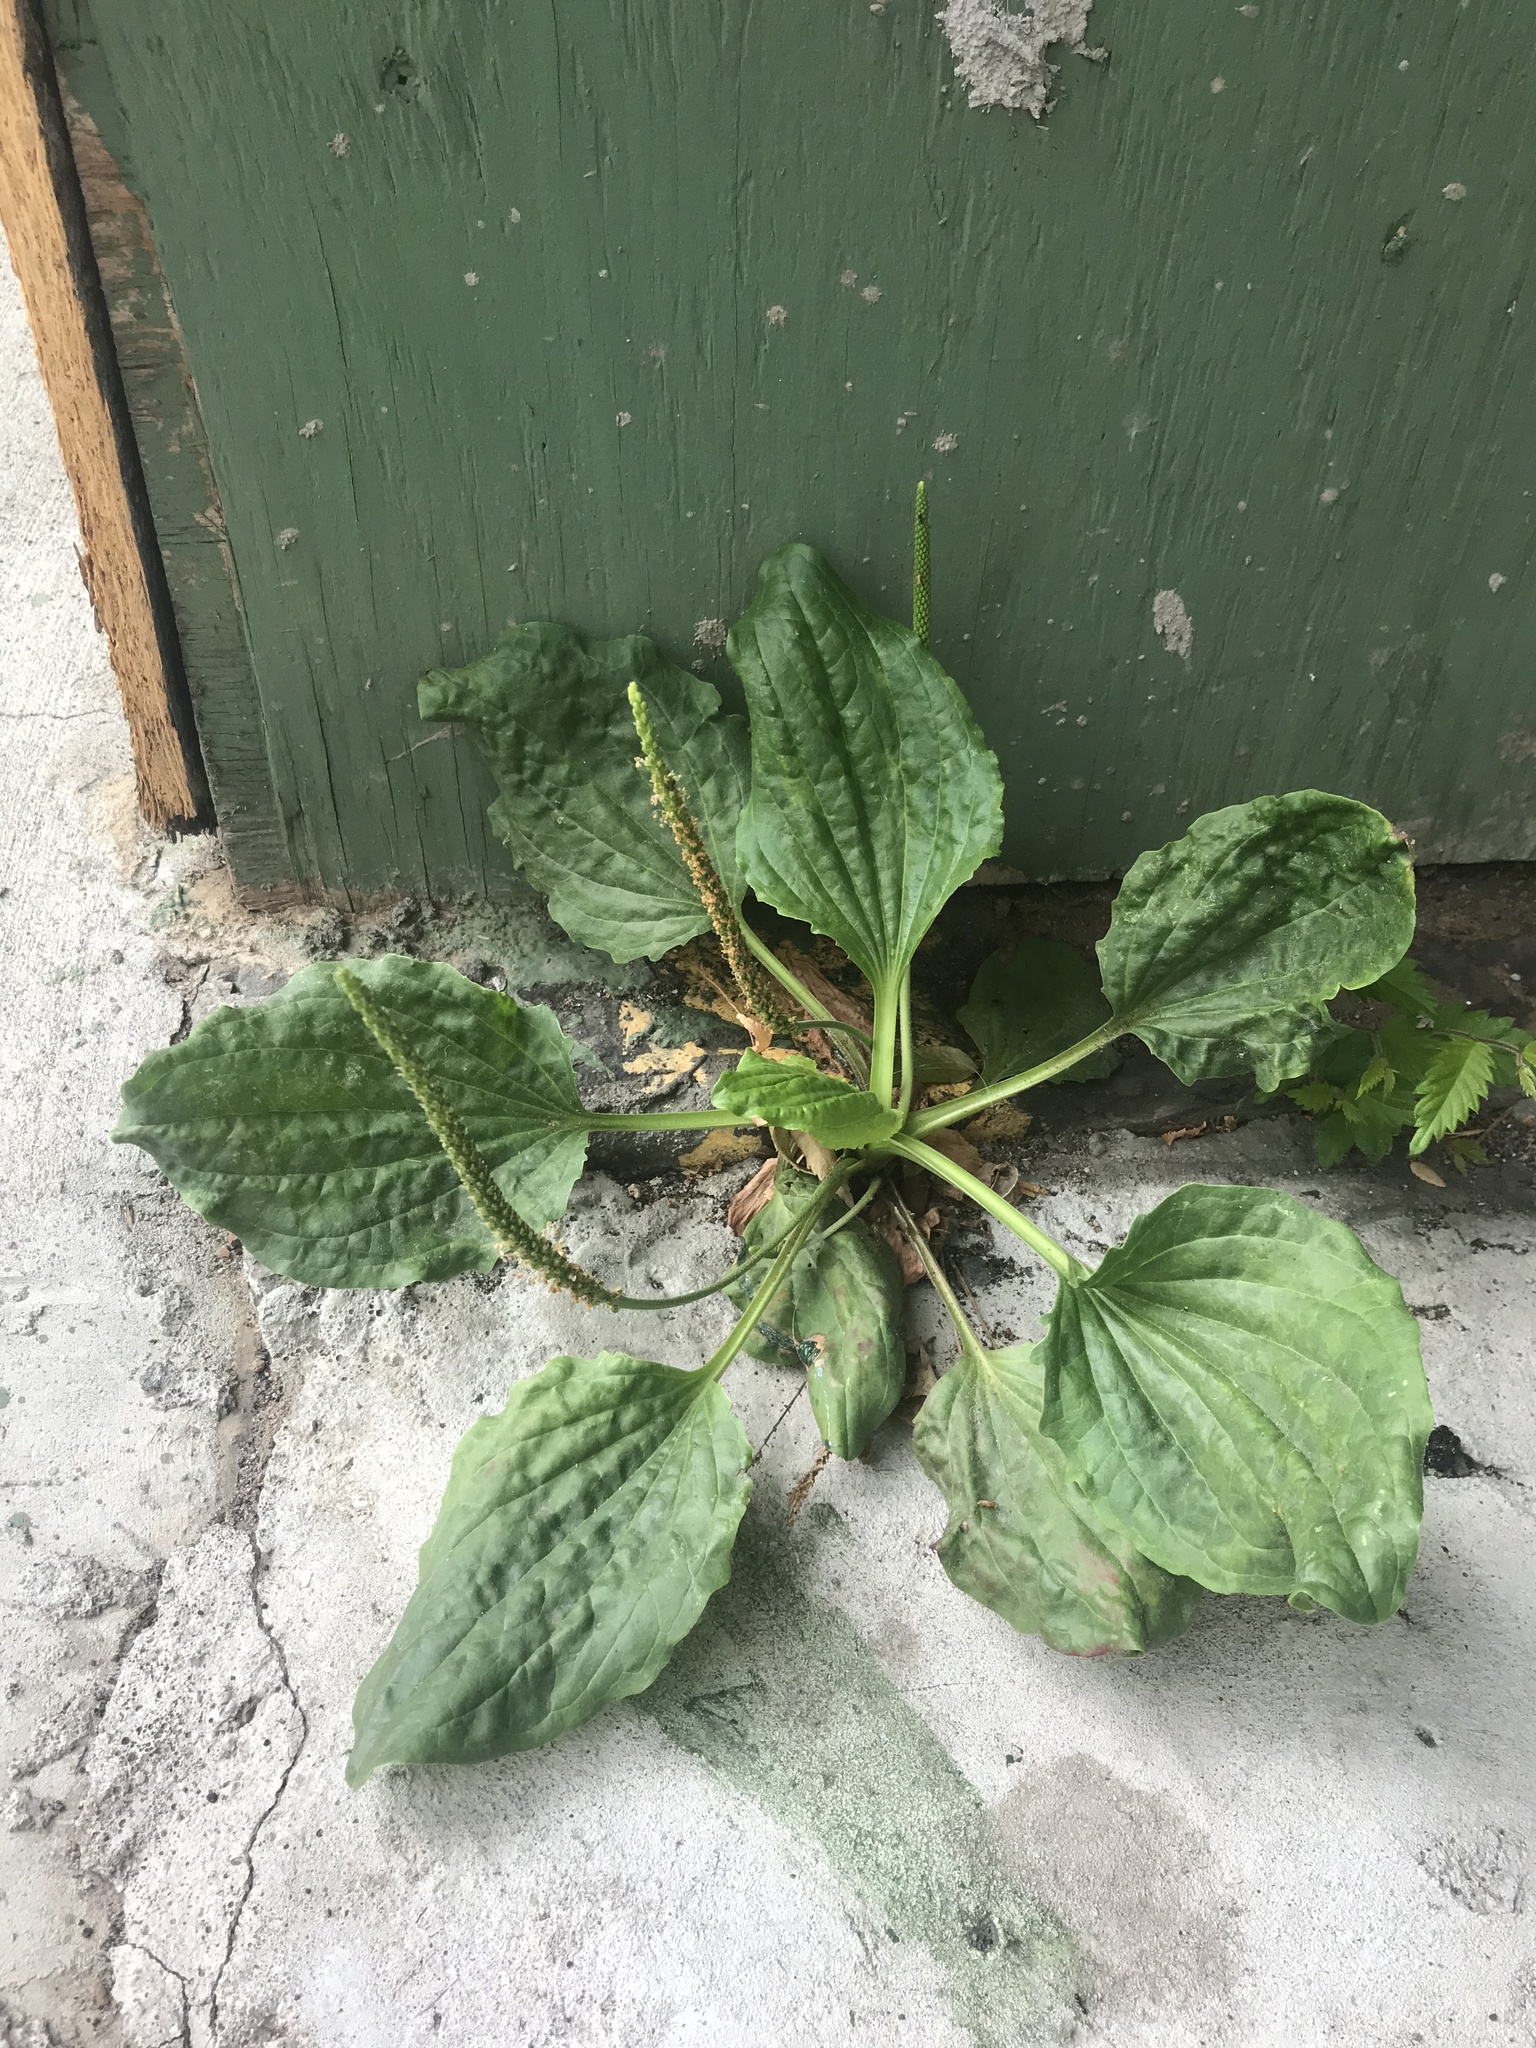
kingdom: Plantae
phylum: Tracheophyta
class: Magnoliopsida
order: Lamiales
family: Plantaginaceae
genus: Plantago
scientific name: Plantago major
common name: Common plantain
